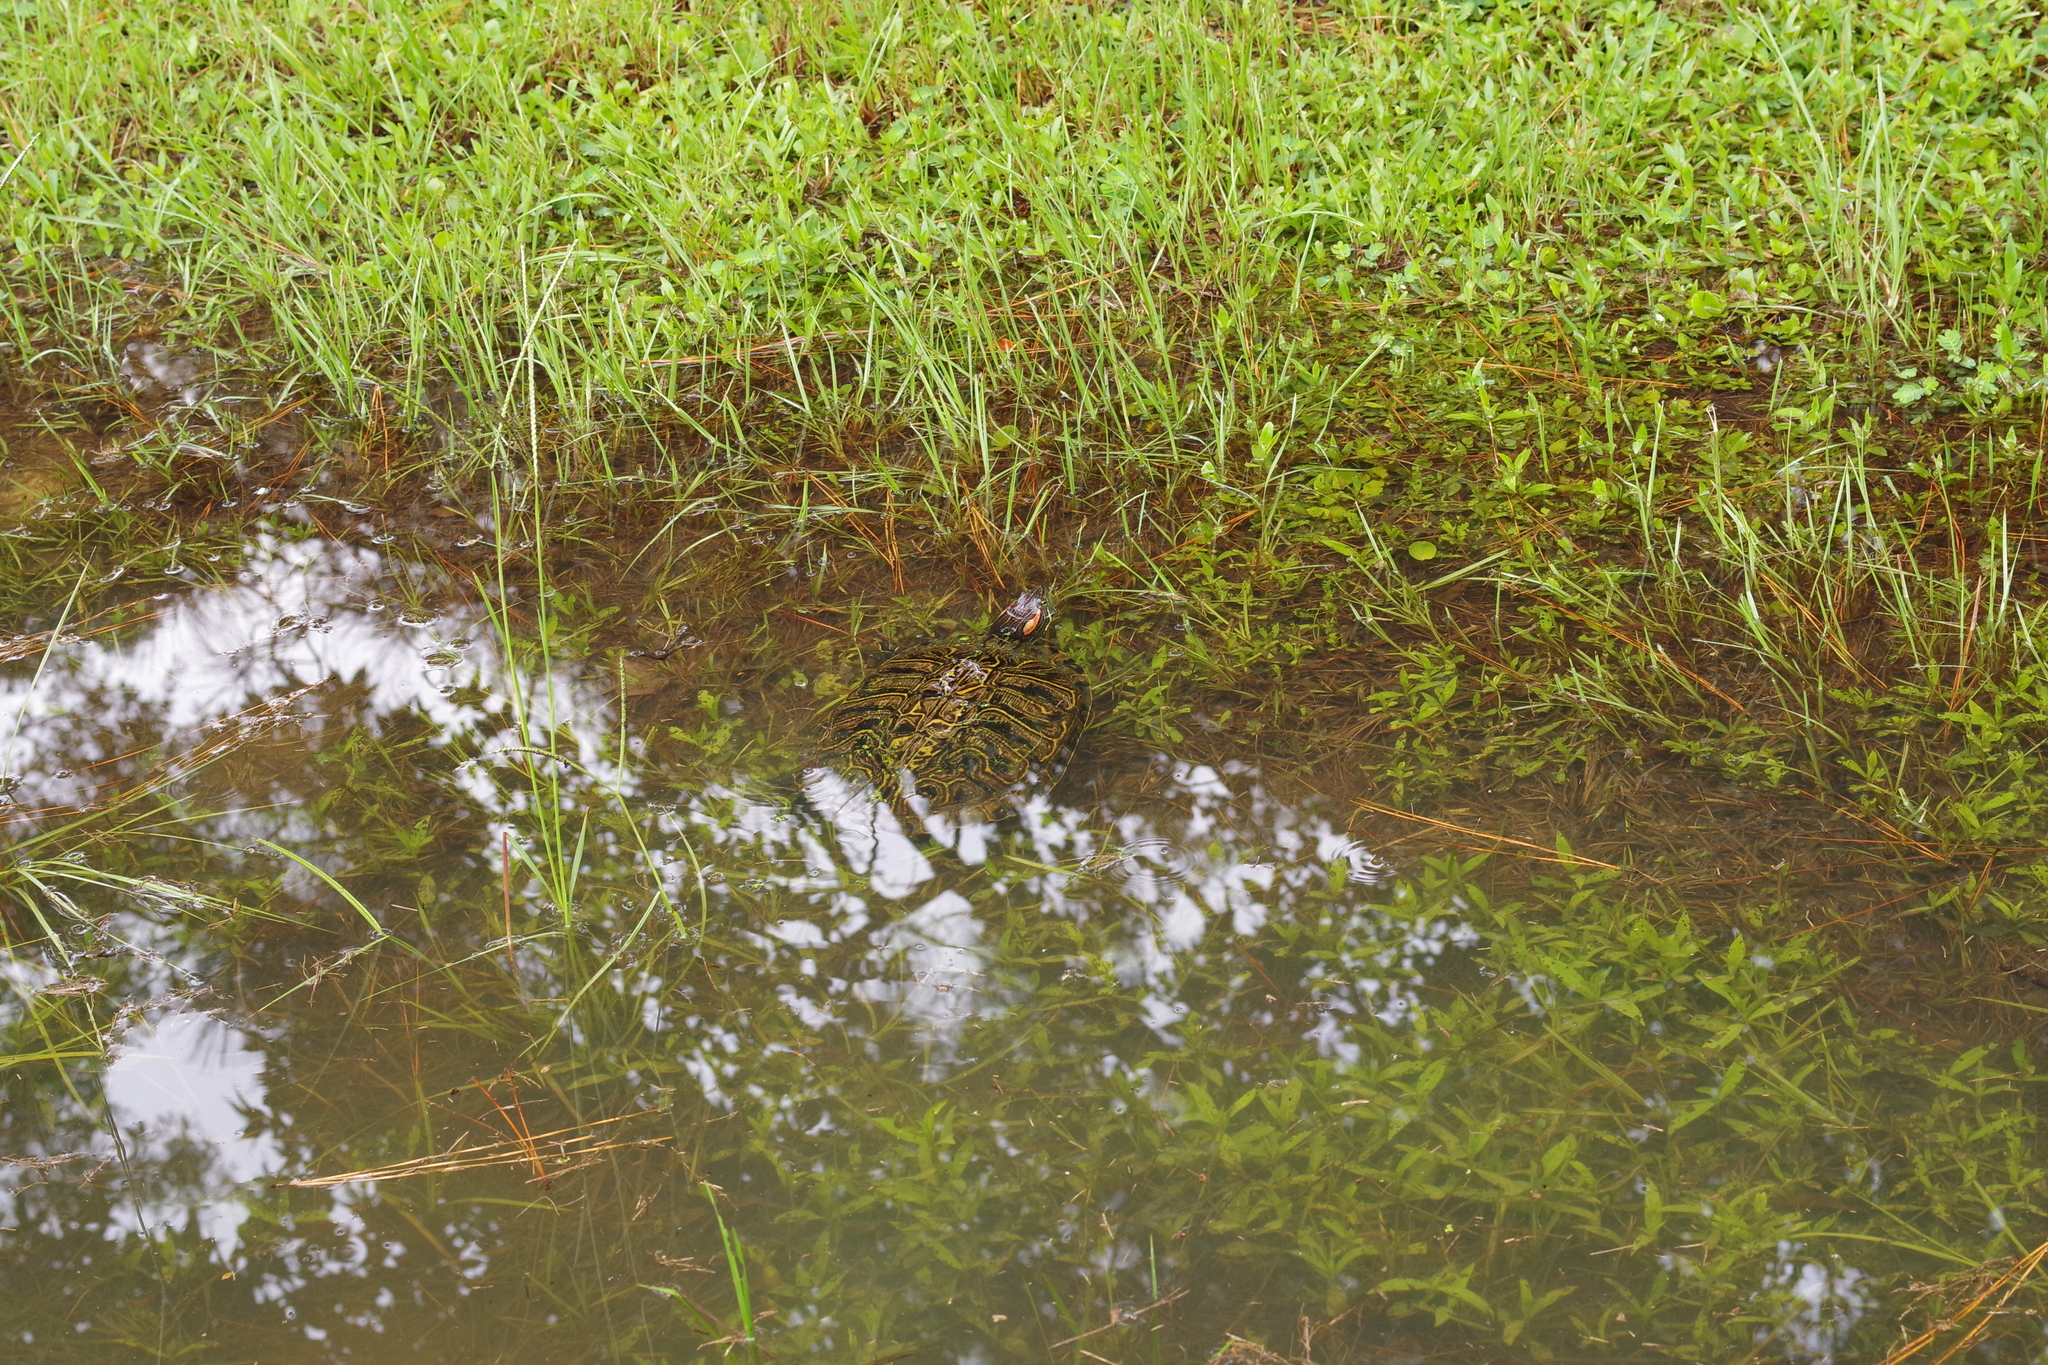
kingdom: Animalia
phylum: Chordata
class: Testudines
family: Emydidae
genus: Trachemys
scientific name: Trachemys scripta
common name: Slider
